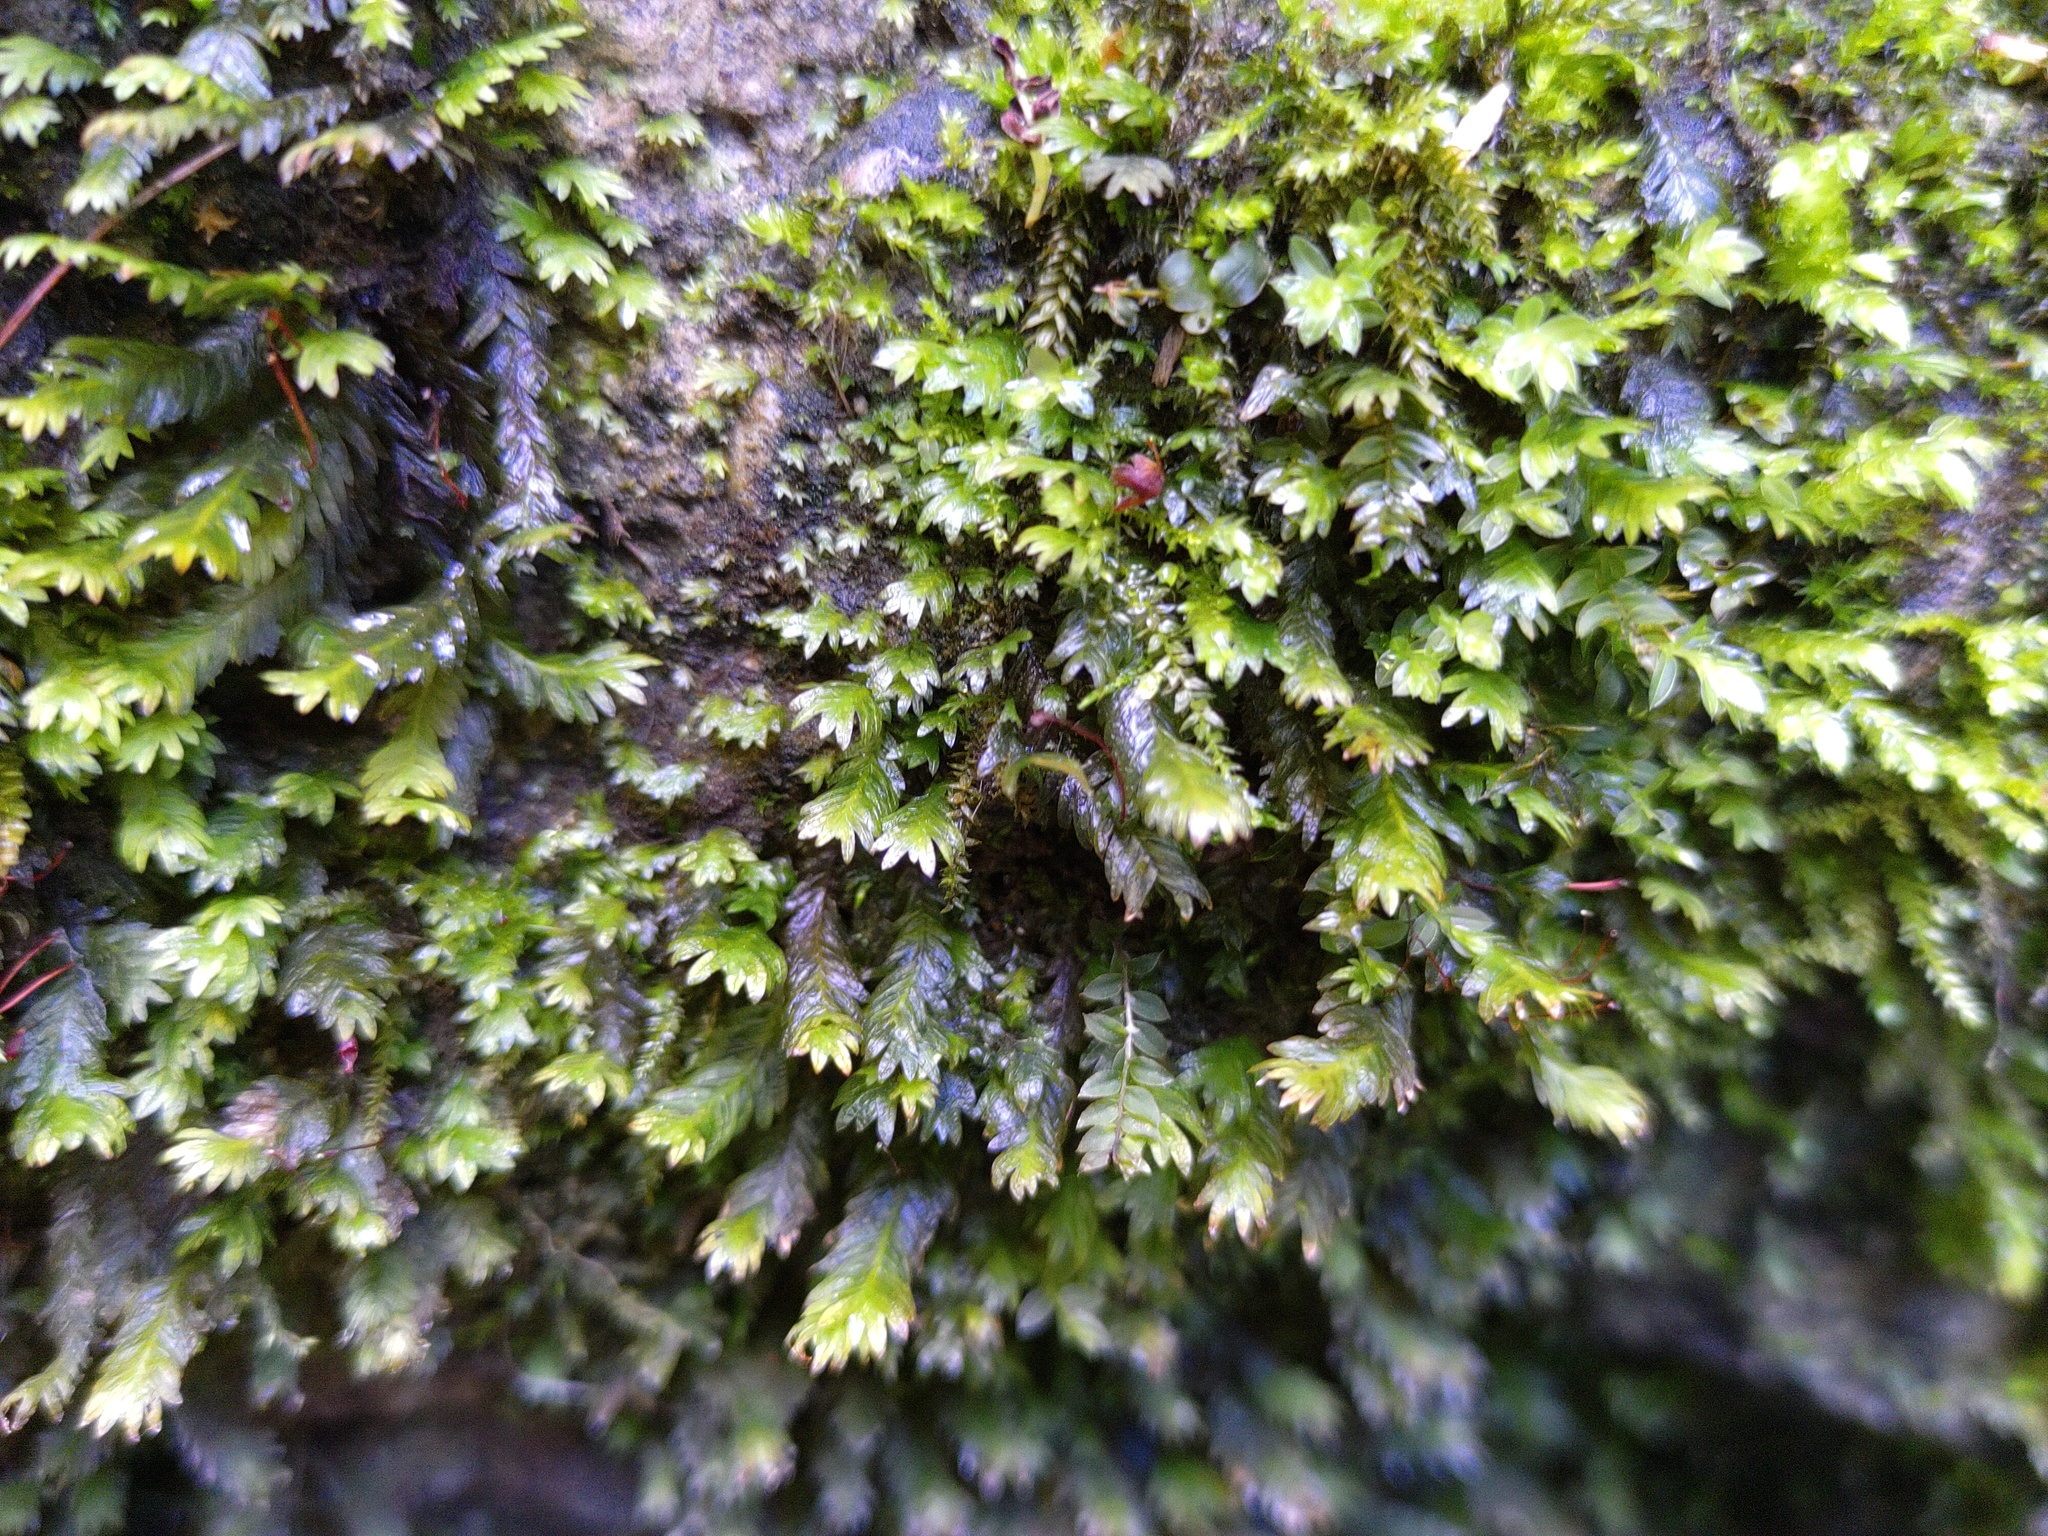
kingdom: Plantae
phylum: Bryophyta
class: Bryopsida
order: Dicranales
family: Fissidentaceae
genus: Fissidens
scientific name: Fissidens dubius
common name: Rock pocket moss
